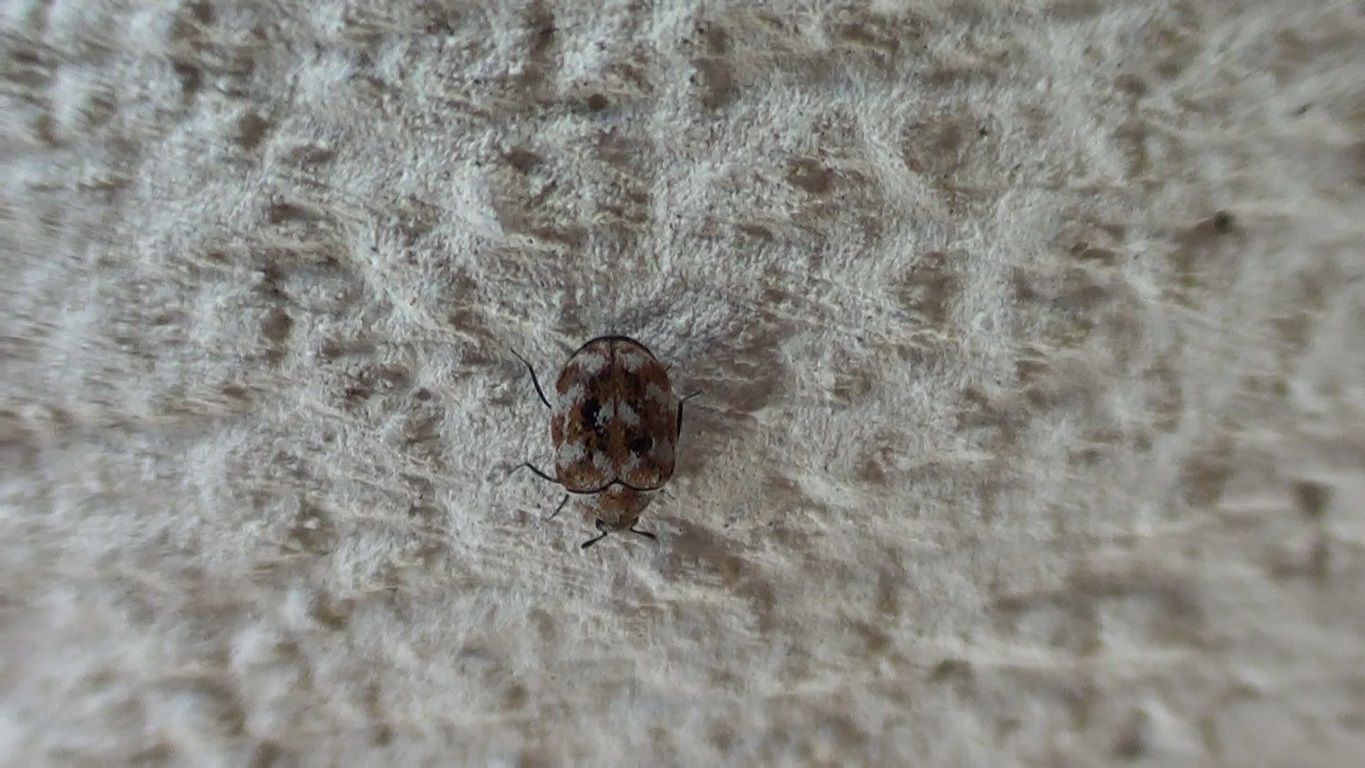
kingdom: Animalia
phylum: Arthropoda
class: Insecta
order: Coleoptera
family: Dermestidae
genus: Anthrenus
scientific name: Anthrenus verbasci
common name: Varied carpet beetle
